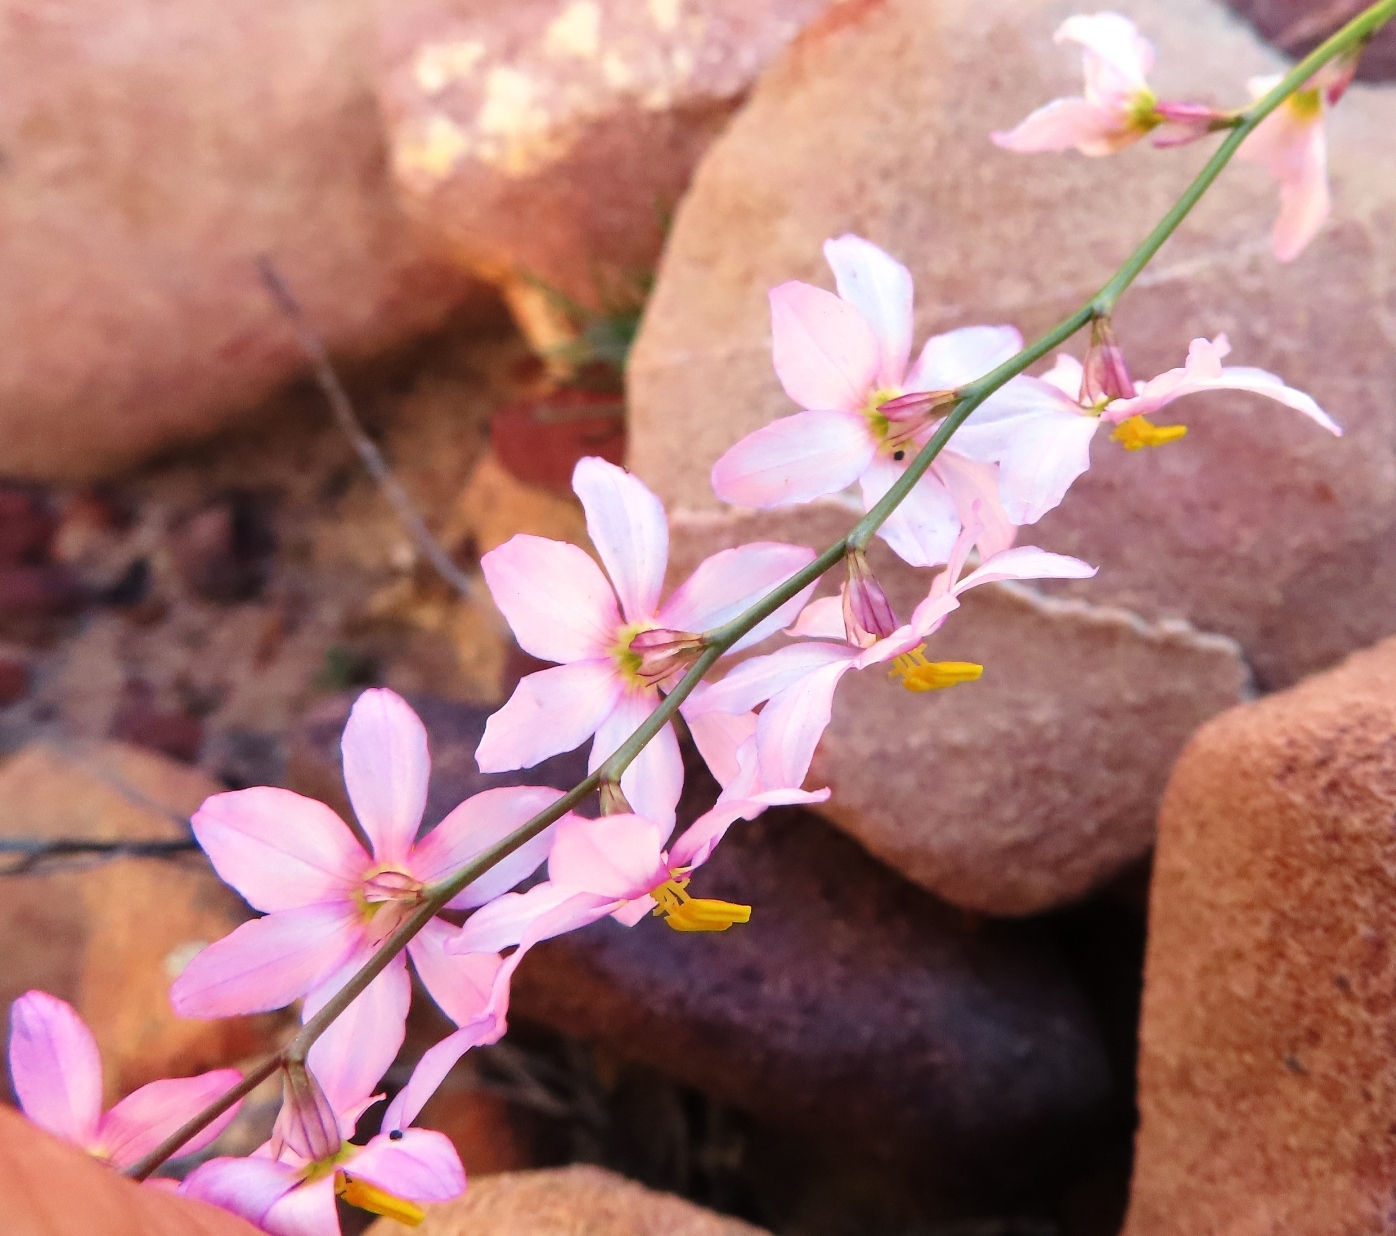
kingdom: Plantae
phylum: Tracheophyta
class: Liliopsida
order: Asparagales
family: Iridaceae
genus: Ixia
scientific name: Ixia scillaris
